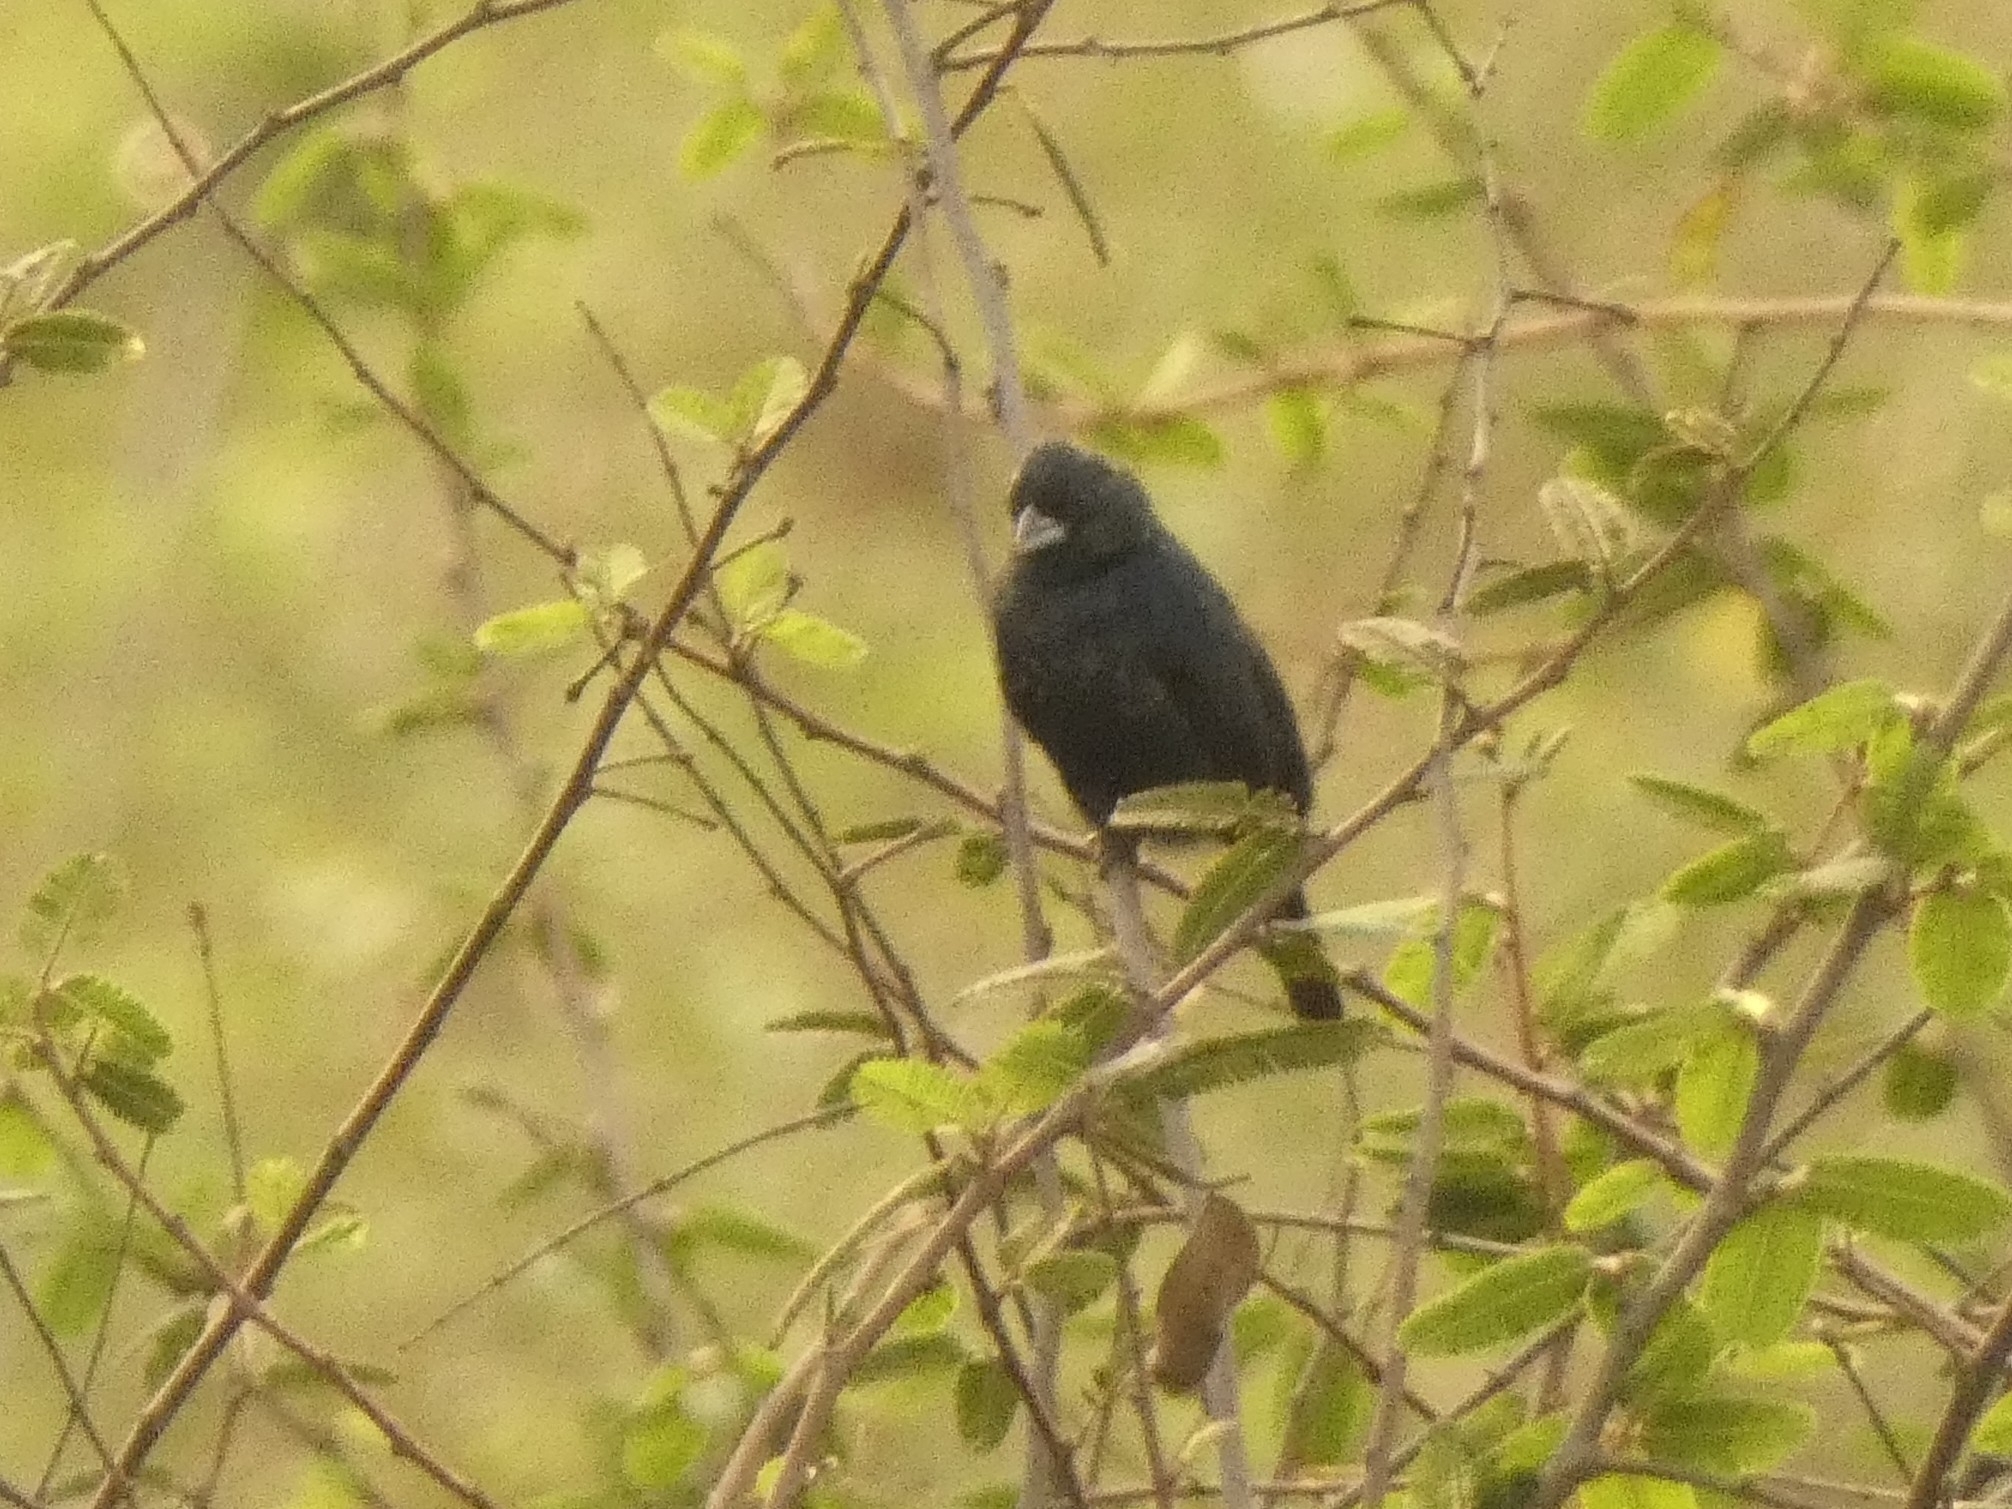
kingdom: Animalia
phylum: Chordata
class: Aves
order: Passeriformes
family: Thraupidae
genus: Volatinia
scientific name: Volatinia jacarina
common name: Blue-black grassquit
